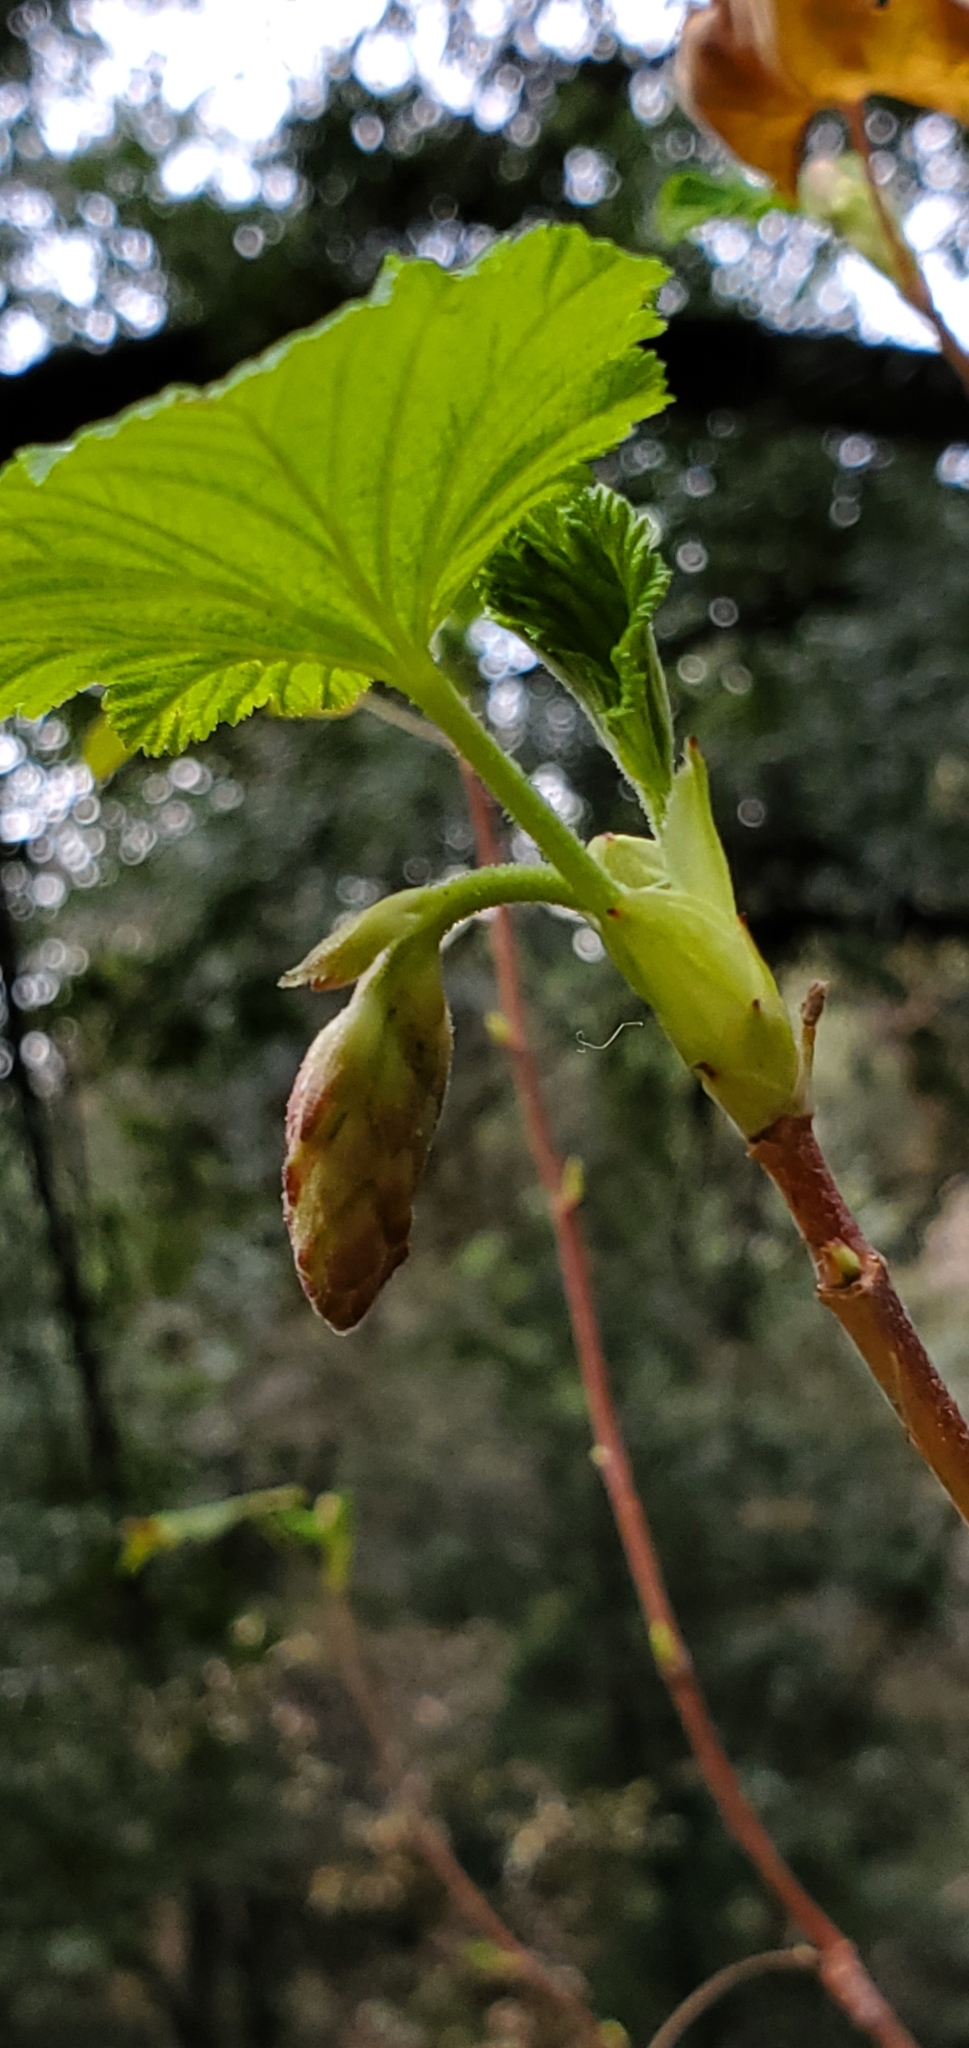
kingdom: Plantae
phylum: Tracheophyta
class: Magnoliopsida
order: Saxifragales
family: Grossulariaceae
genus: Ribes
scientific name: Ribes sanguineum
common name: Flowering currant
